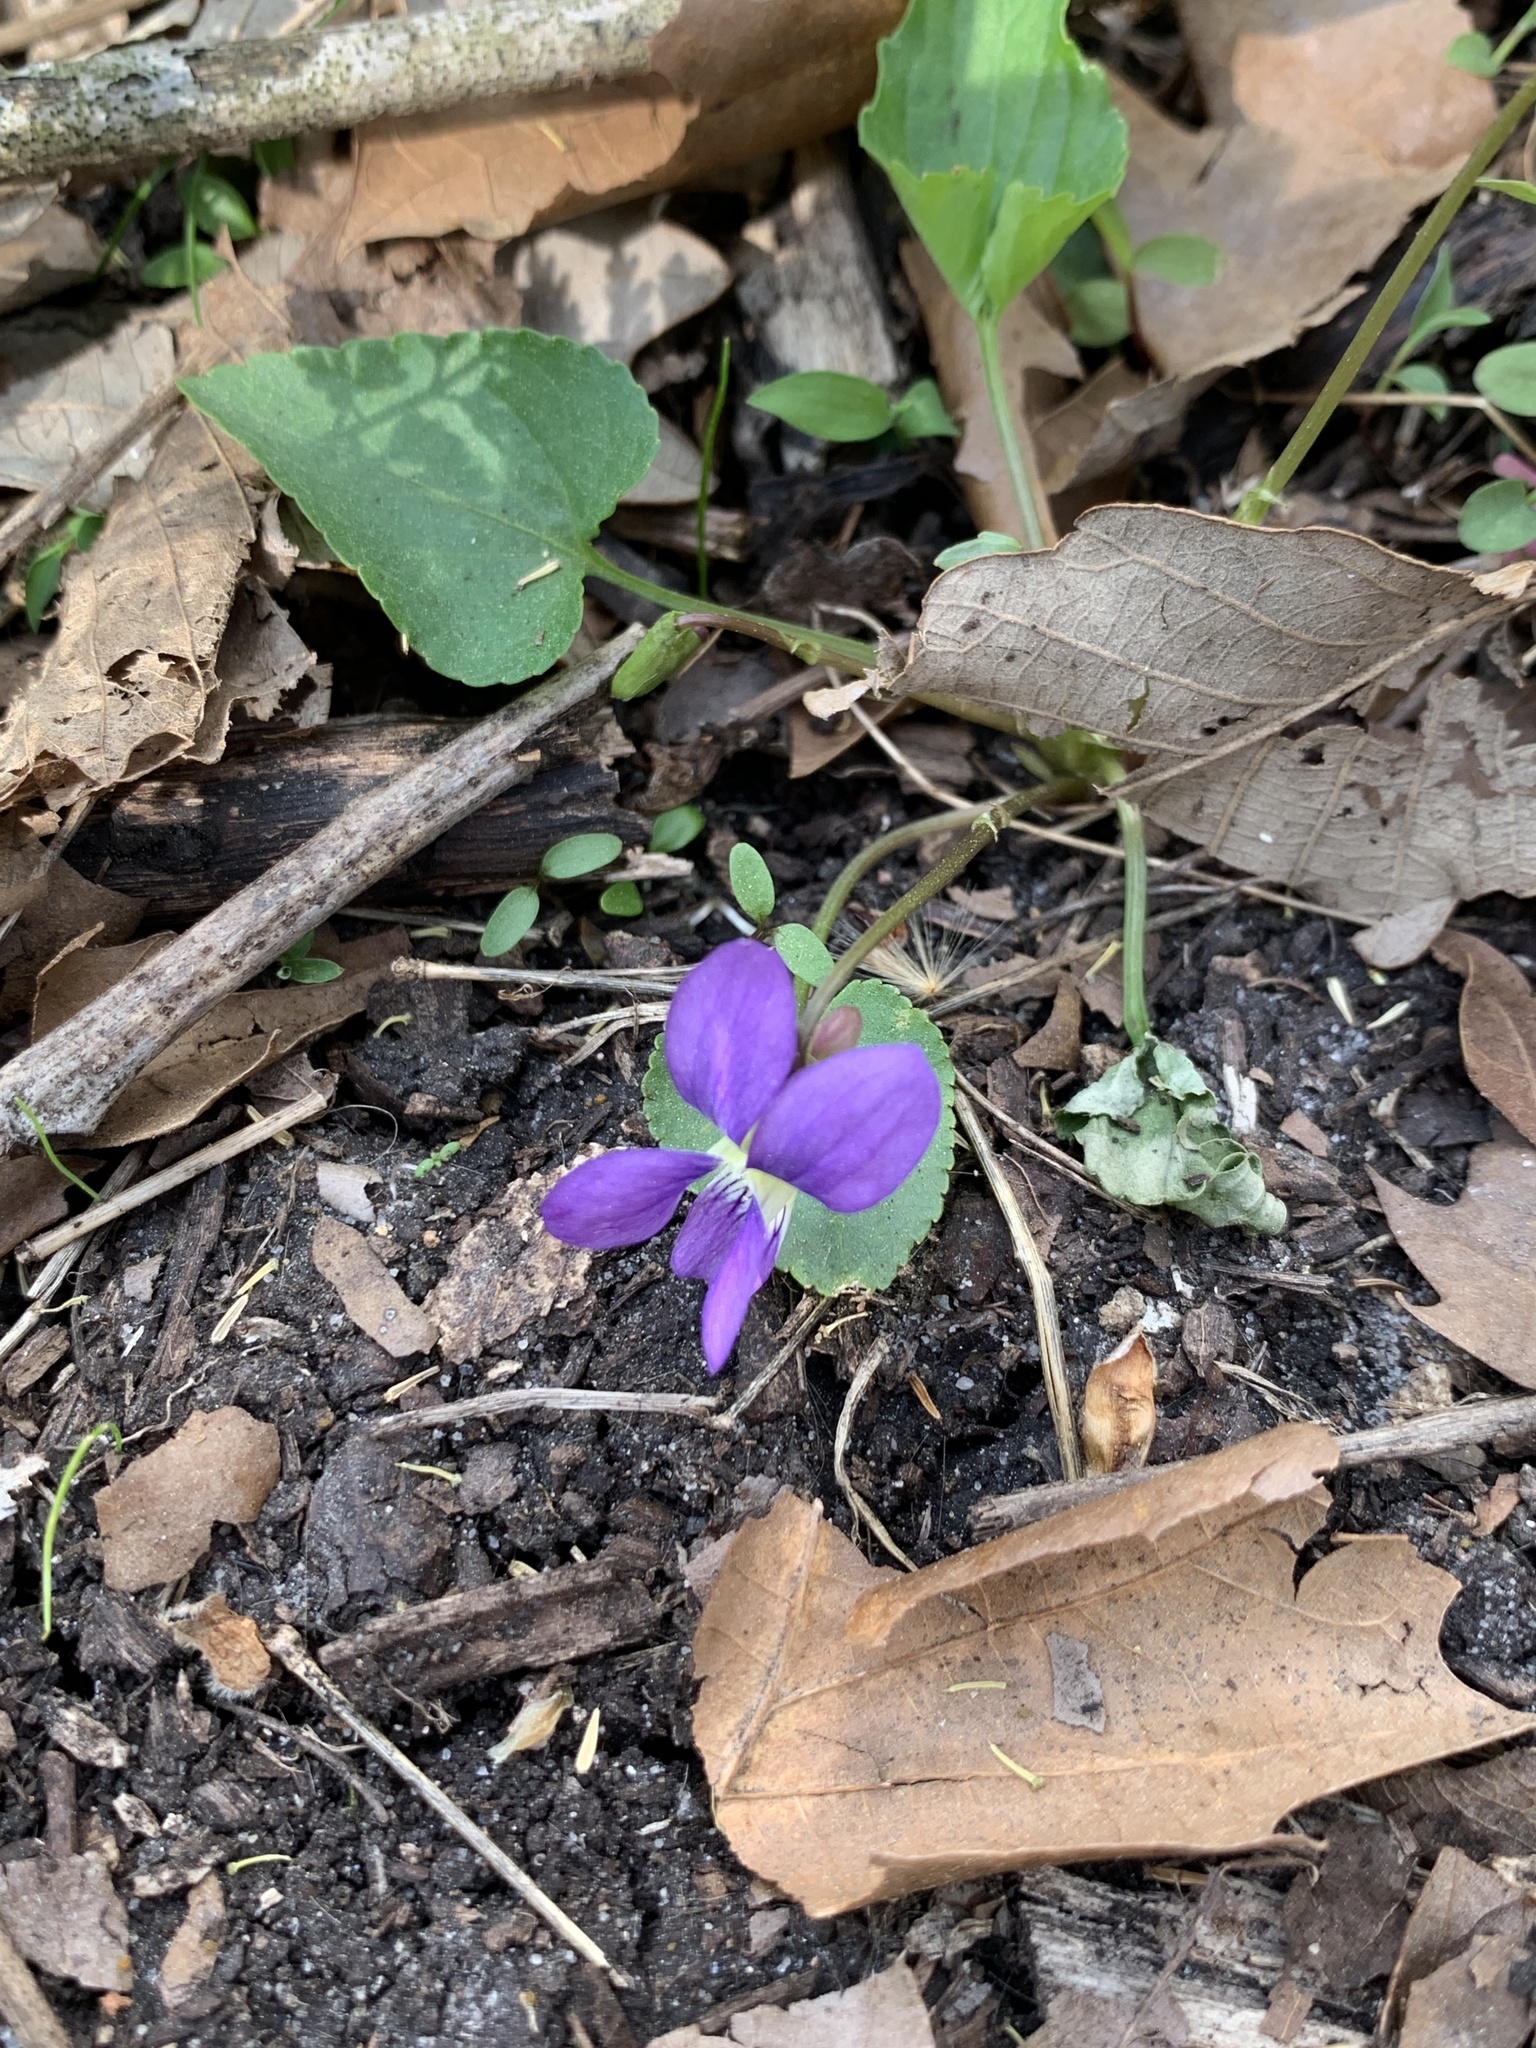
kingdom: Plantae
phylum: Tracheophyta
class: Magnoliopsida
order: Malpighiales
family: Violaceae
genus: Viola
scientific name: Viola sororia
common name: Dooryard violet
